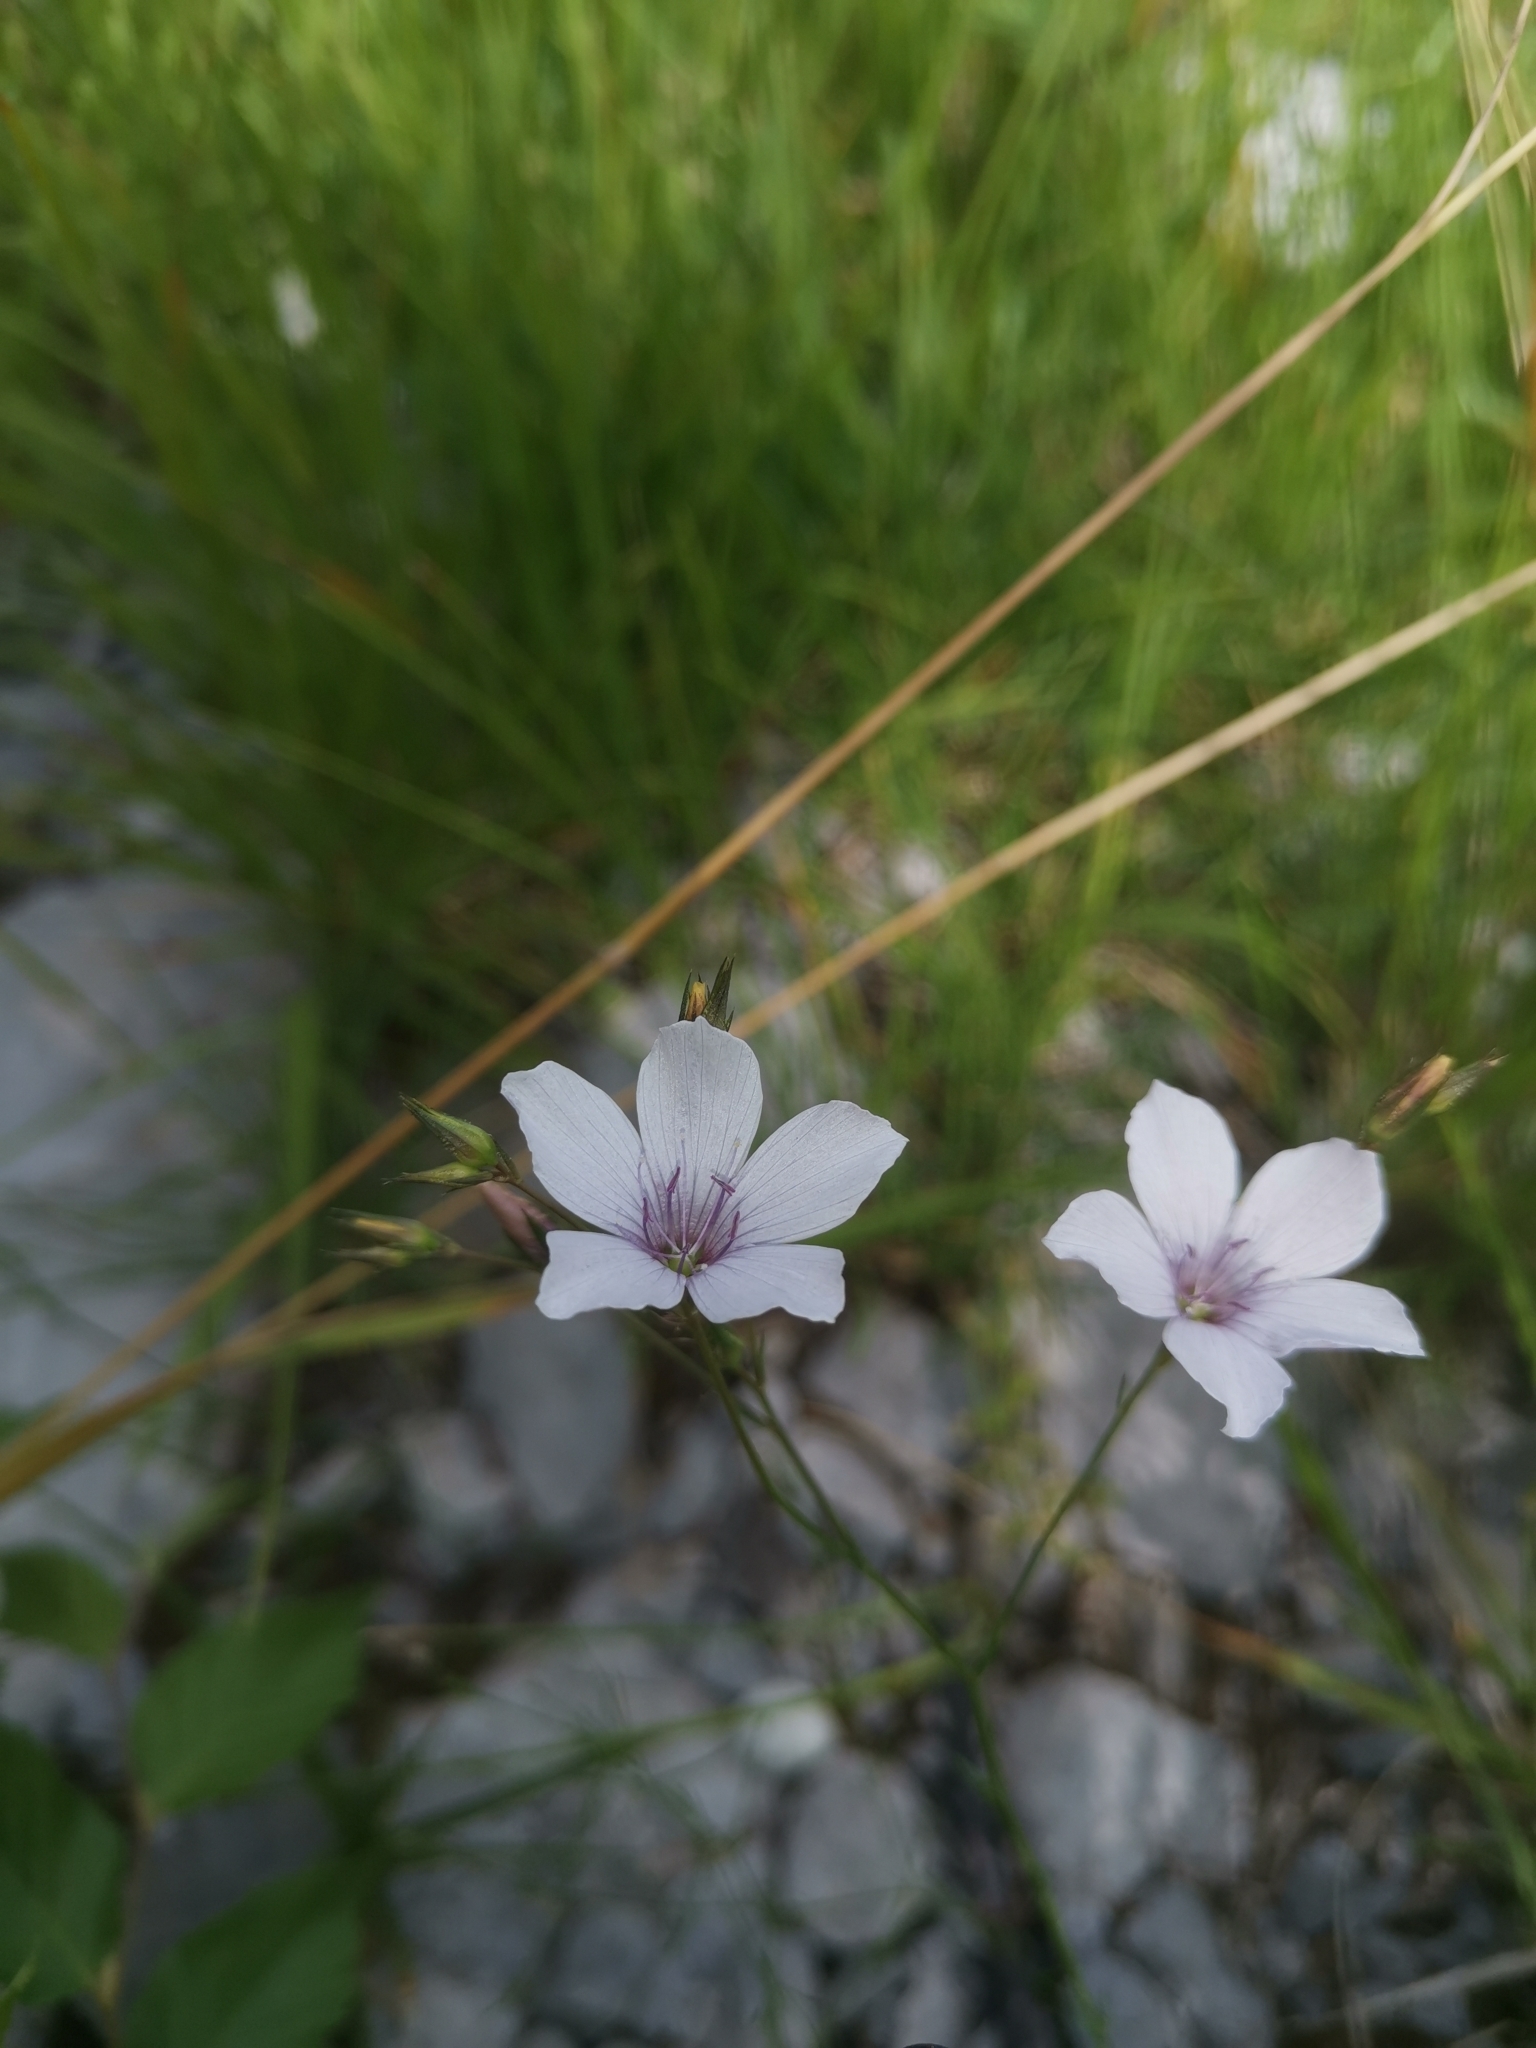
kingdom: Plantae
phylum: Tracheophyta
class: Magnoliopsida
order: Malpighiales
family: Linaceae
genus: Linum
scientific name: Linum tenuifolium
